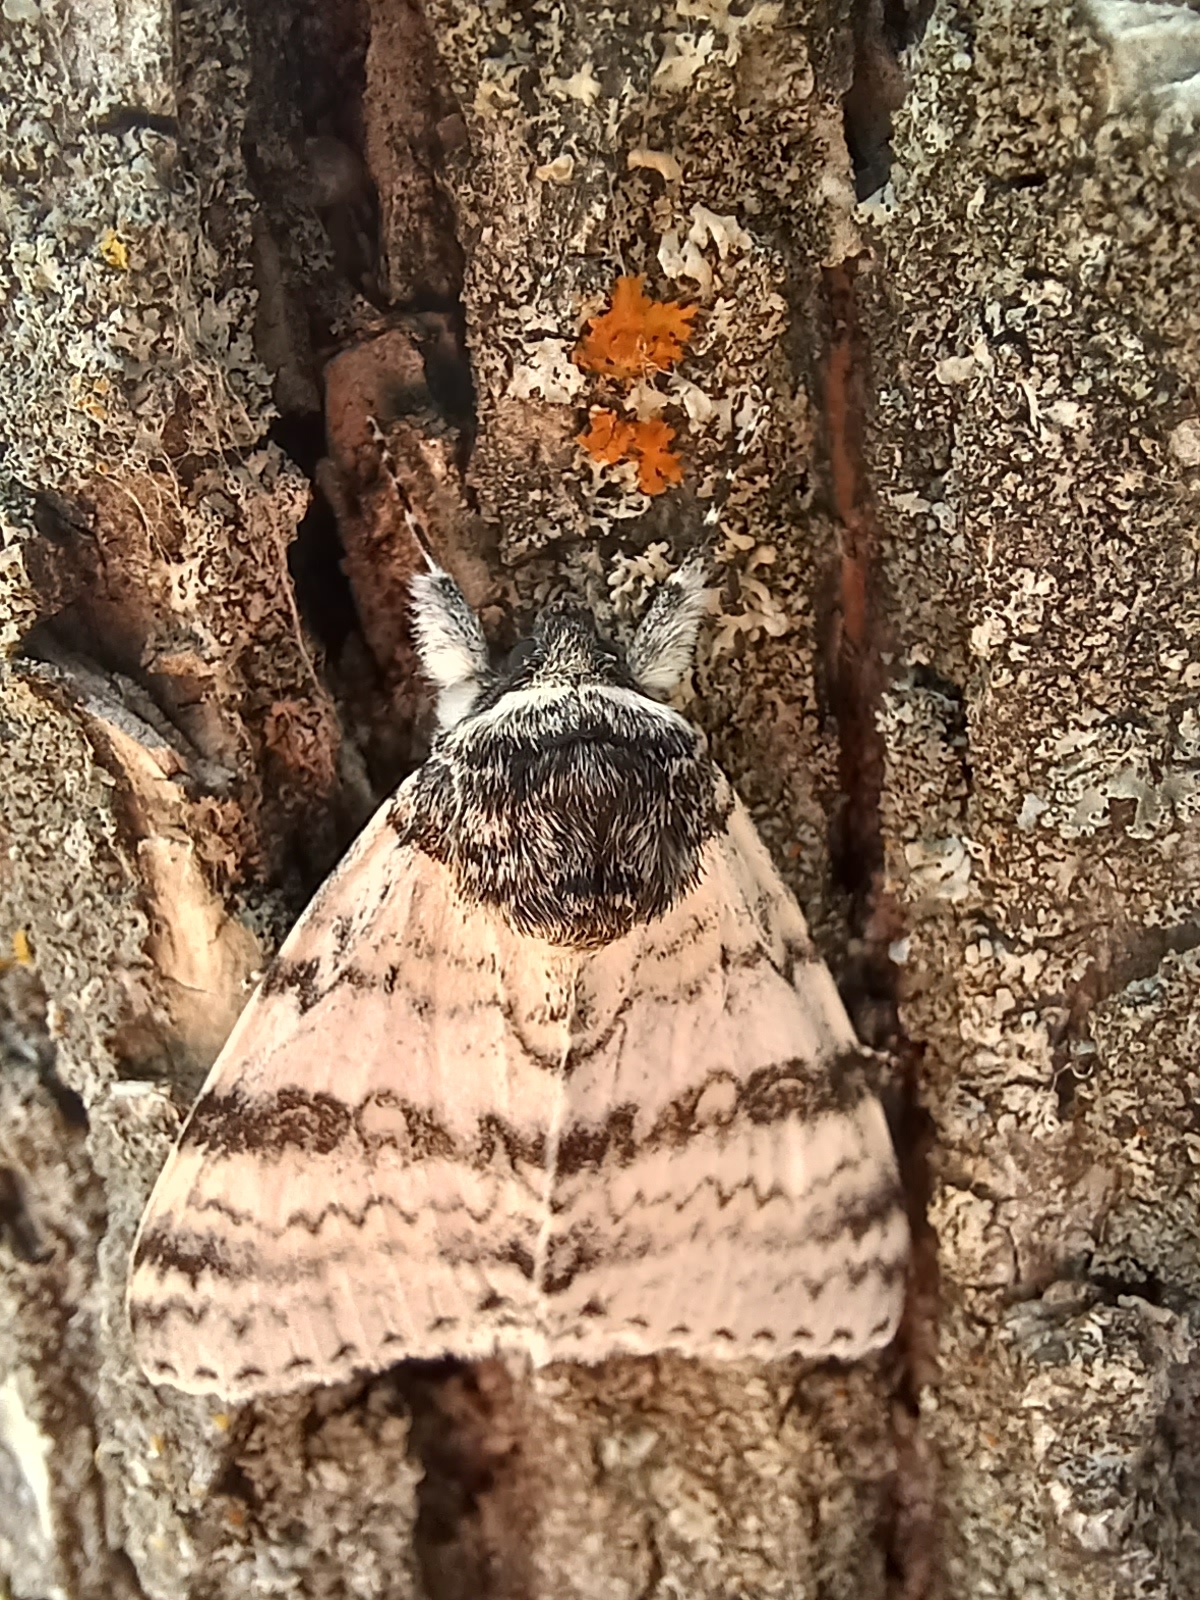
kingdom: Animalia
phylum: Arthropoda
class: Insecta
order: Lepidoptera
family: Erebidae
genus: Catocala
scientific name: Catocala relicta
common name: White underwing
